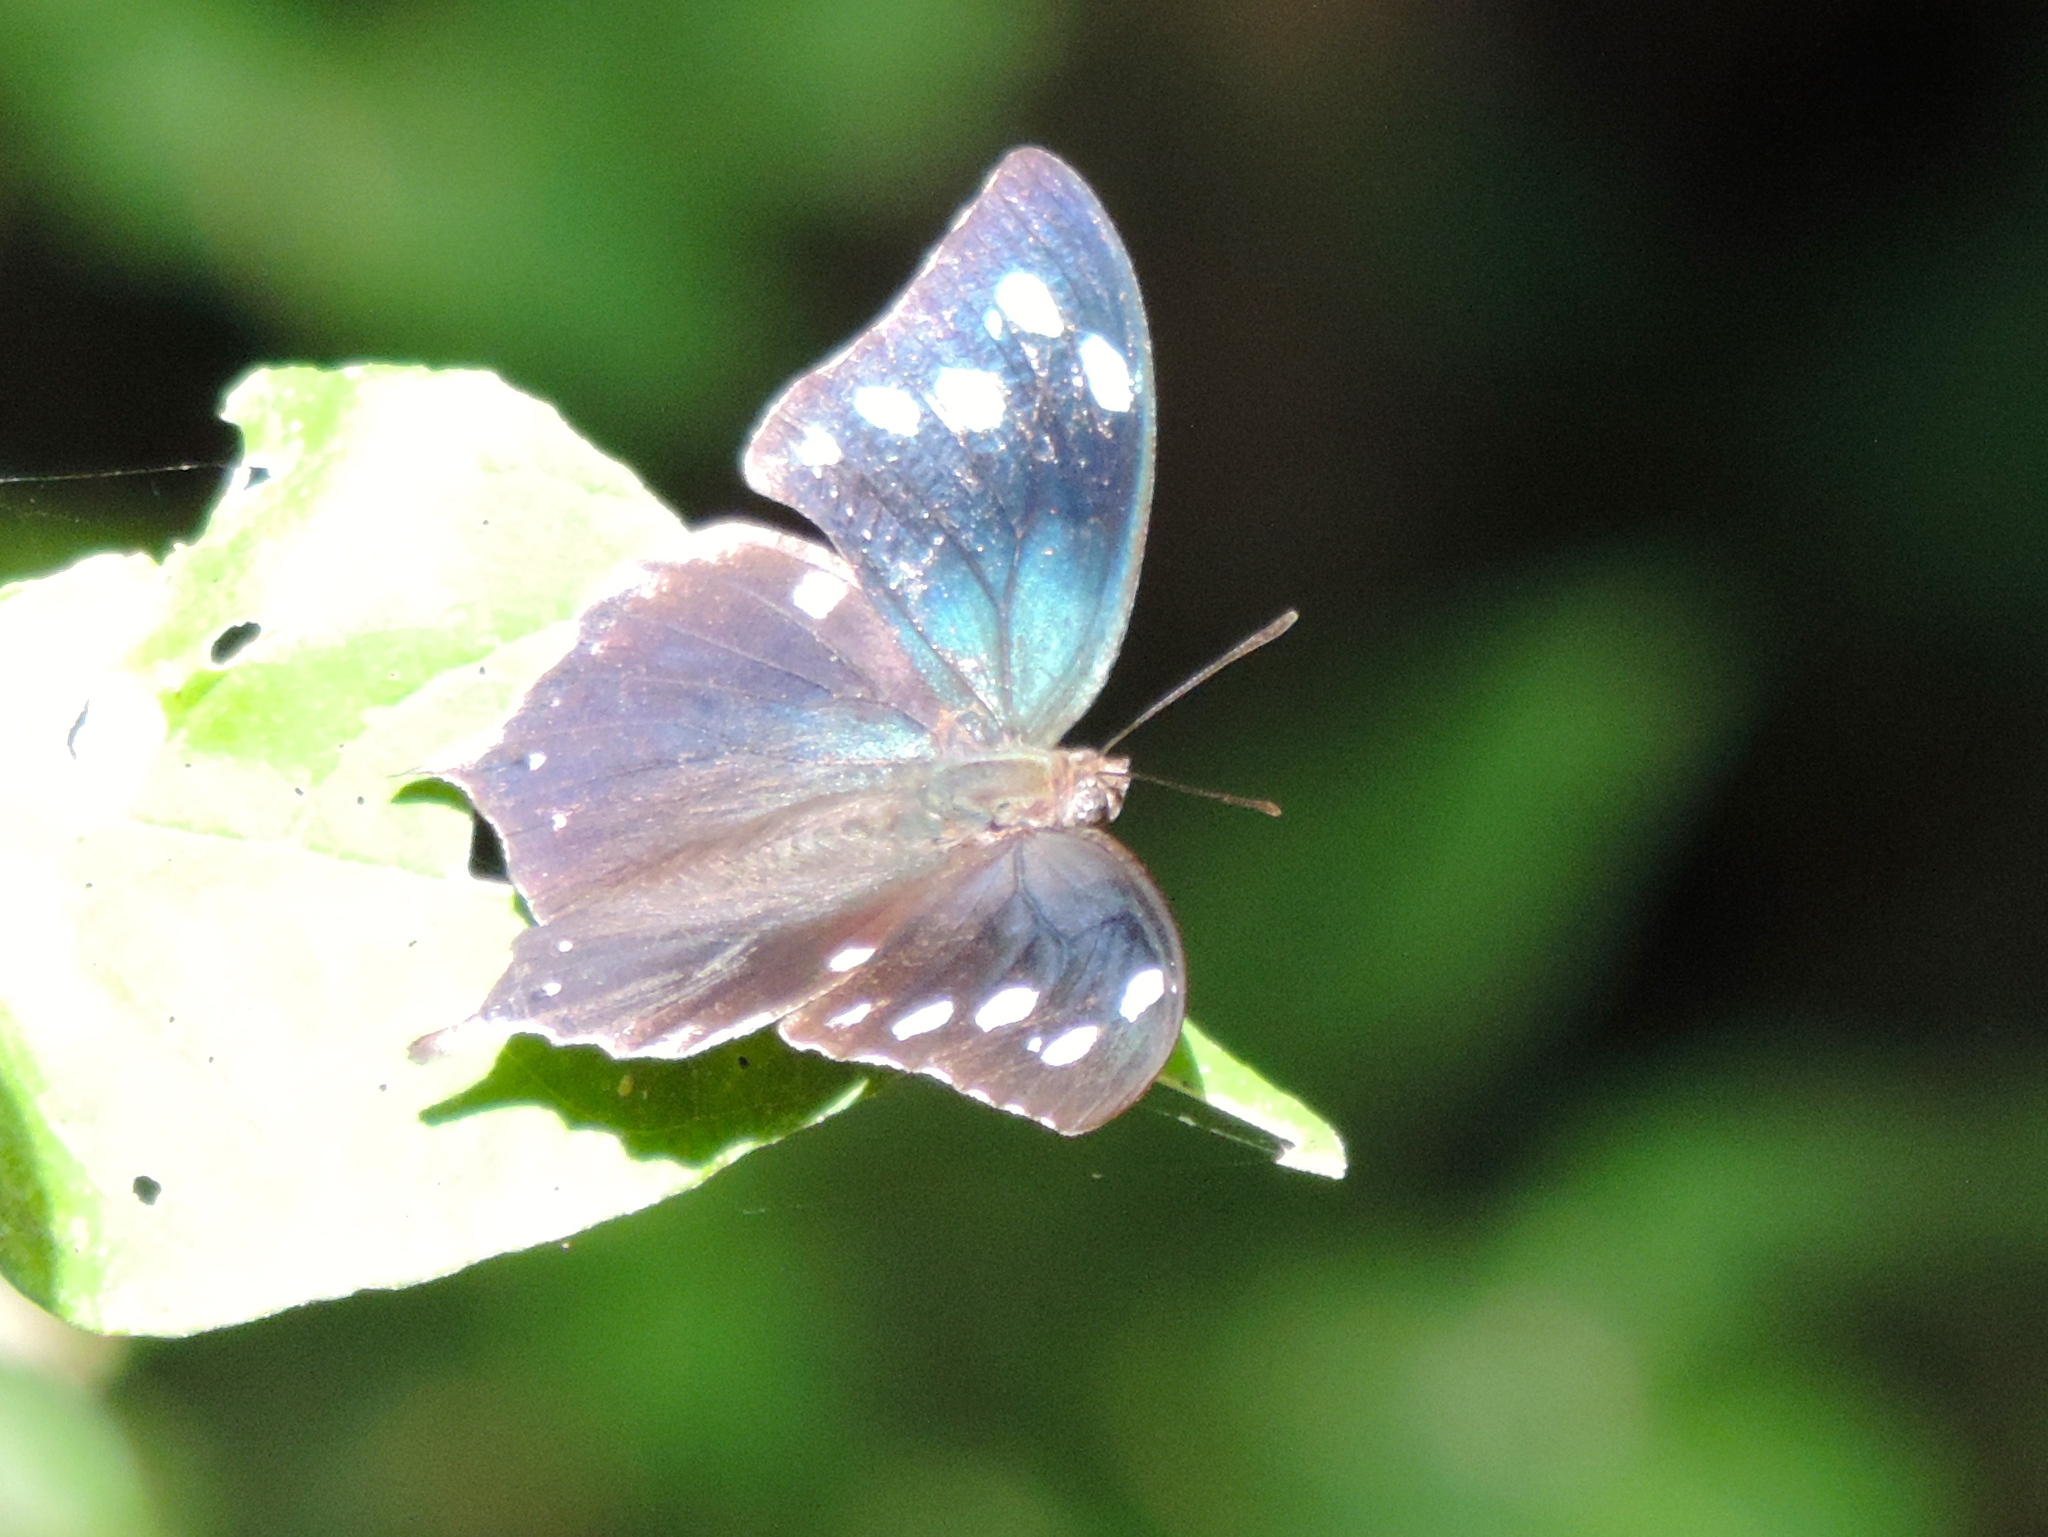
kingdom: Animalia
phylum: Arthropoda
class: Insecta
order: Lepidoptera
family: Nymphalidae
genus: Anaea
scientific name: Anaea pithyusa
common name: Pale-spotted leafwing
